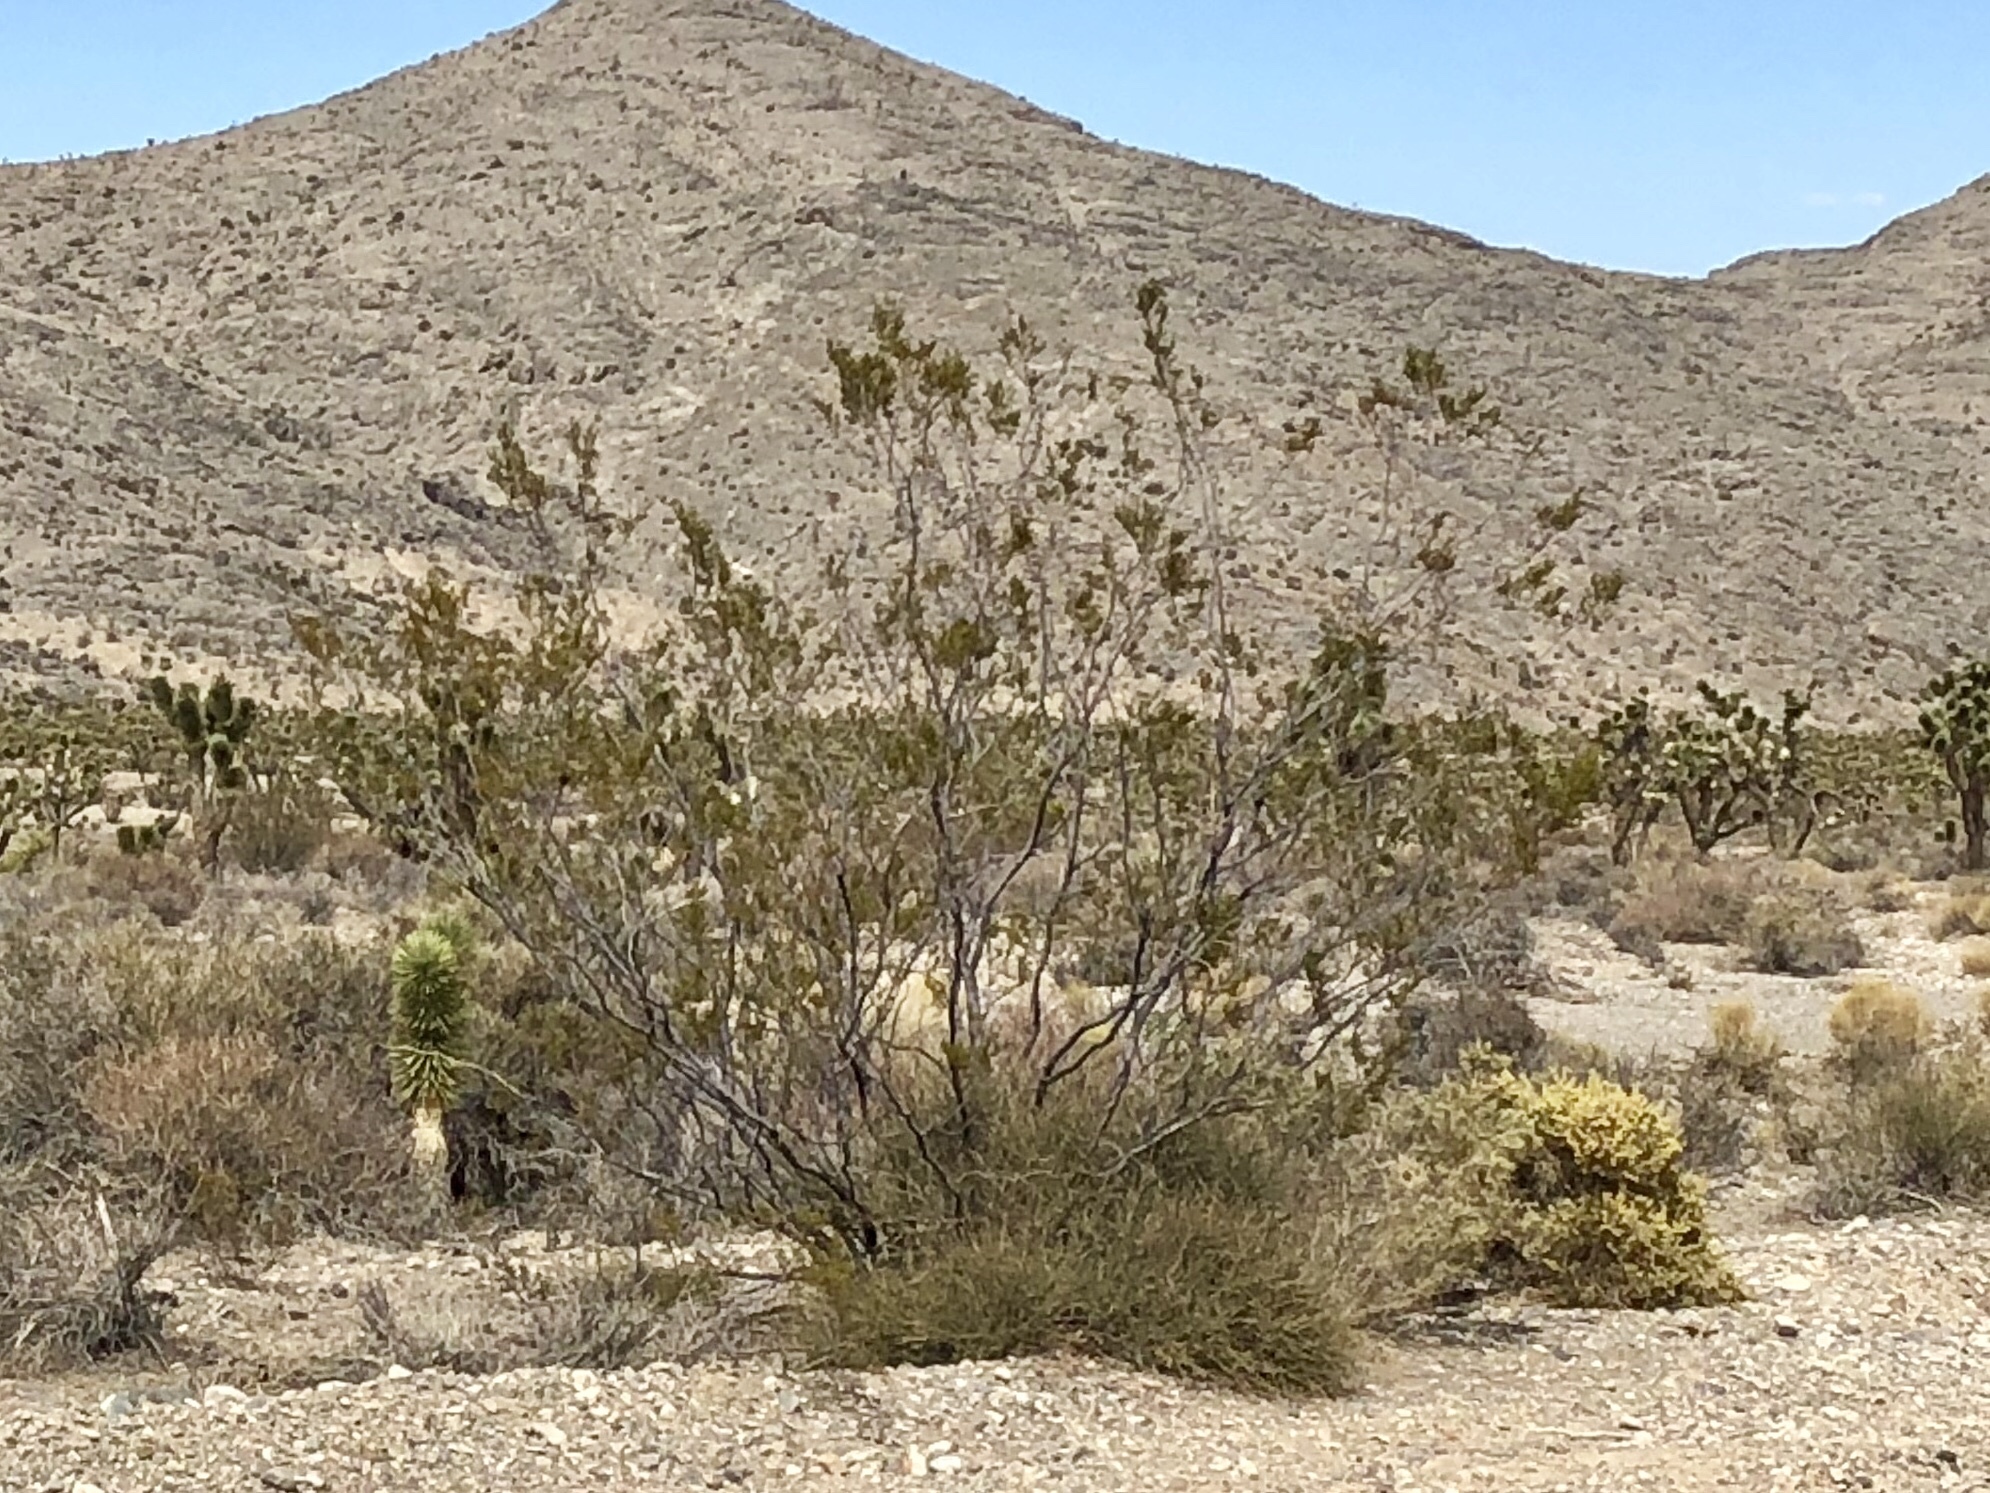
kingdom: Plantae
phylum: Tracheophyta
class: Magnoliopsida
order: Zygophyllales
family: Zygophyllaceae
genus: Larrea
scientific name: Larrea tridentata
